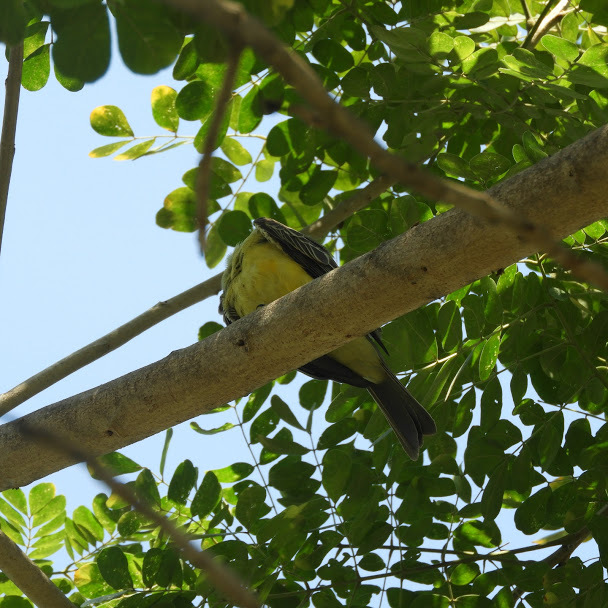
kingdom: Animalia
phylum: Chordata
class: Aves
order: Passeriformes
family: Tyrannidae
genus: Tyrannus
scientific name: Tyrannus melancholicus
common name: Tropical kingbird
